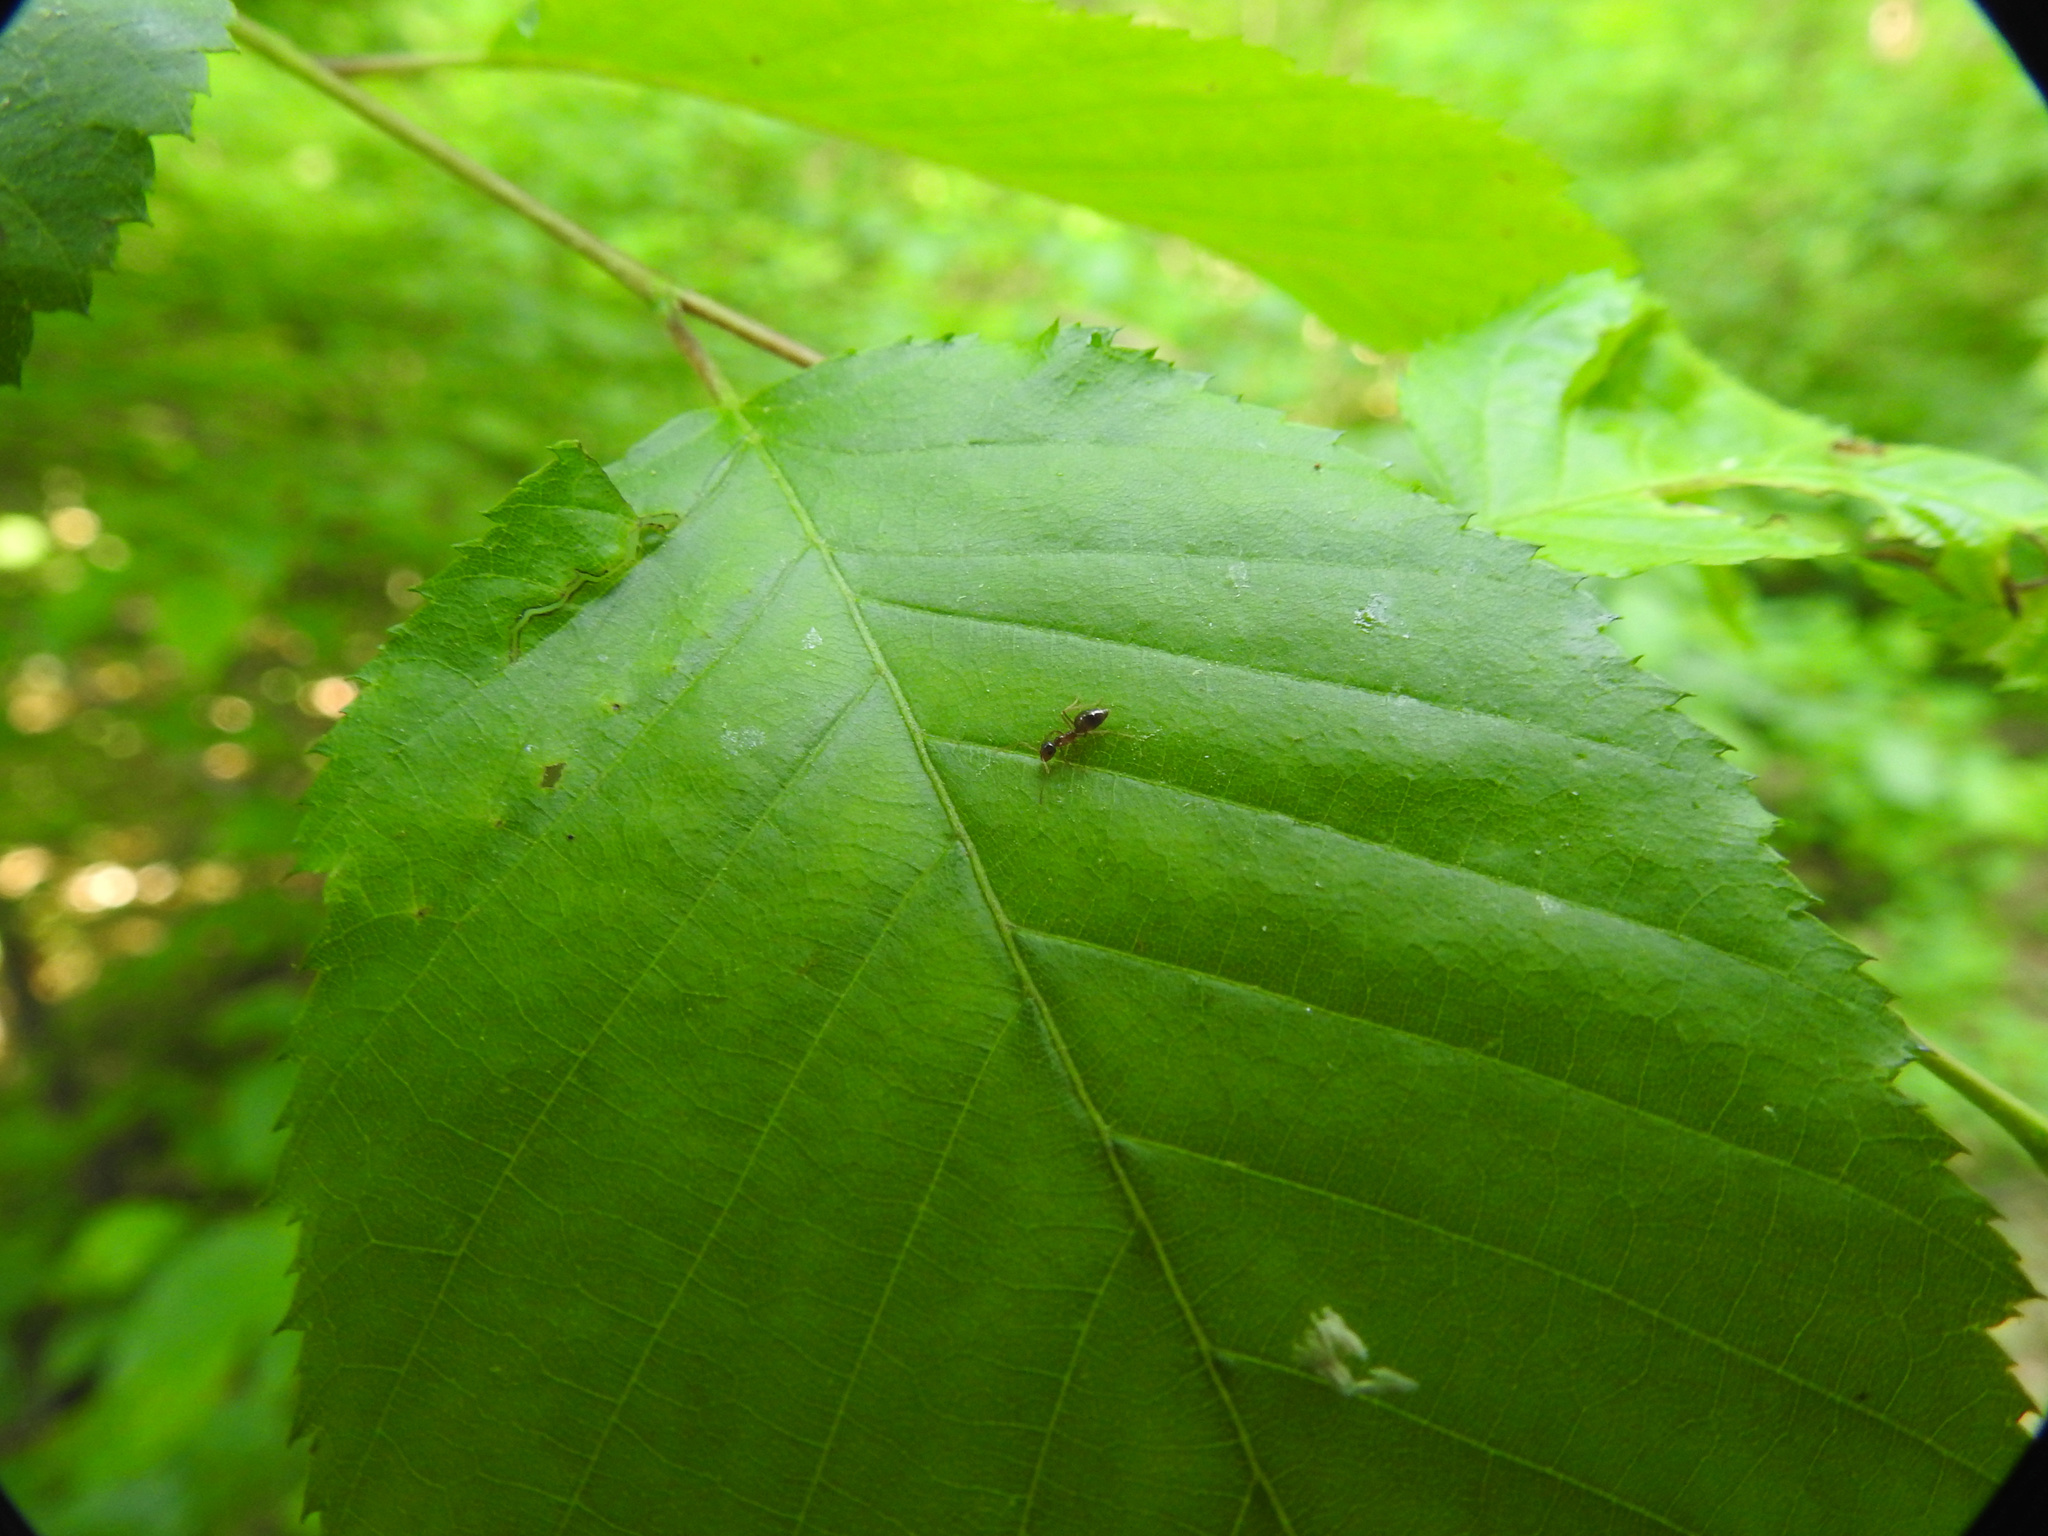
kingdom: Animalia
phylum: Arthropoda
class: Insecta
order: Hymenoptera
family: Formicidae
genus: Prenolepis
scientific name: Prenolepis imparis
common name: Small honey ant
